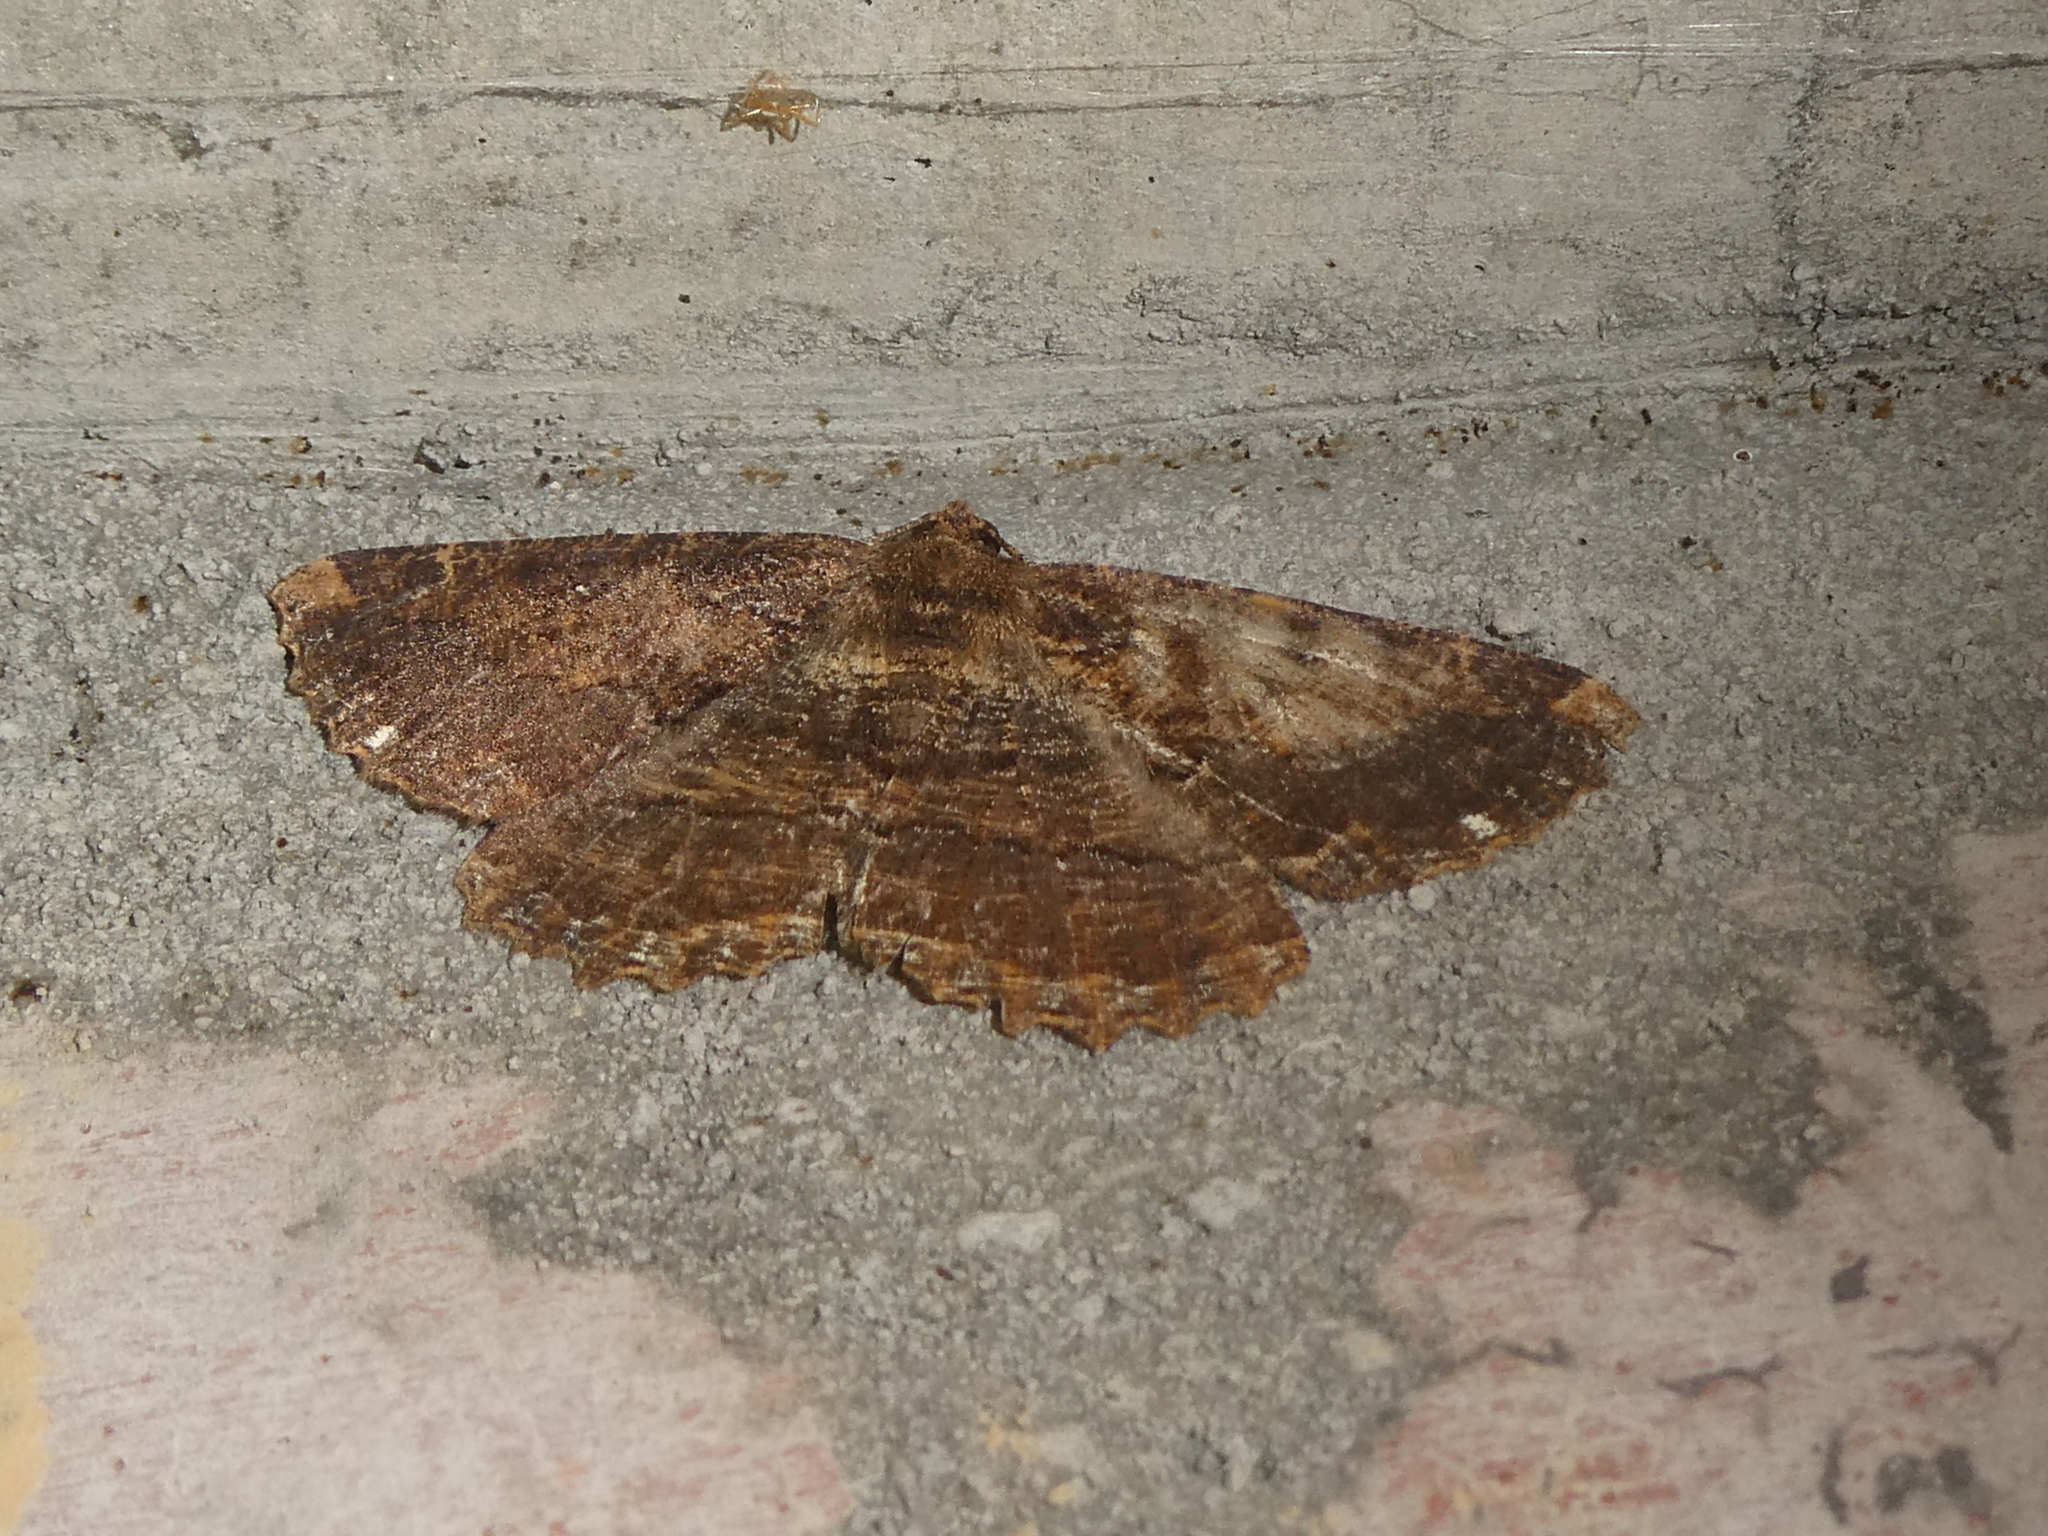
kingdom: Animalia
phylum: Arthropoda
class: Insecta
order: Lepidoptera
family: Geometridae
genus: Gellonia
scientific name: Gellonia dejectaria
